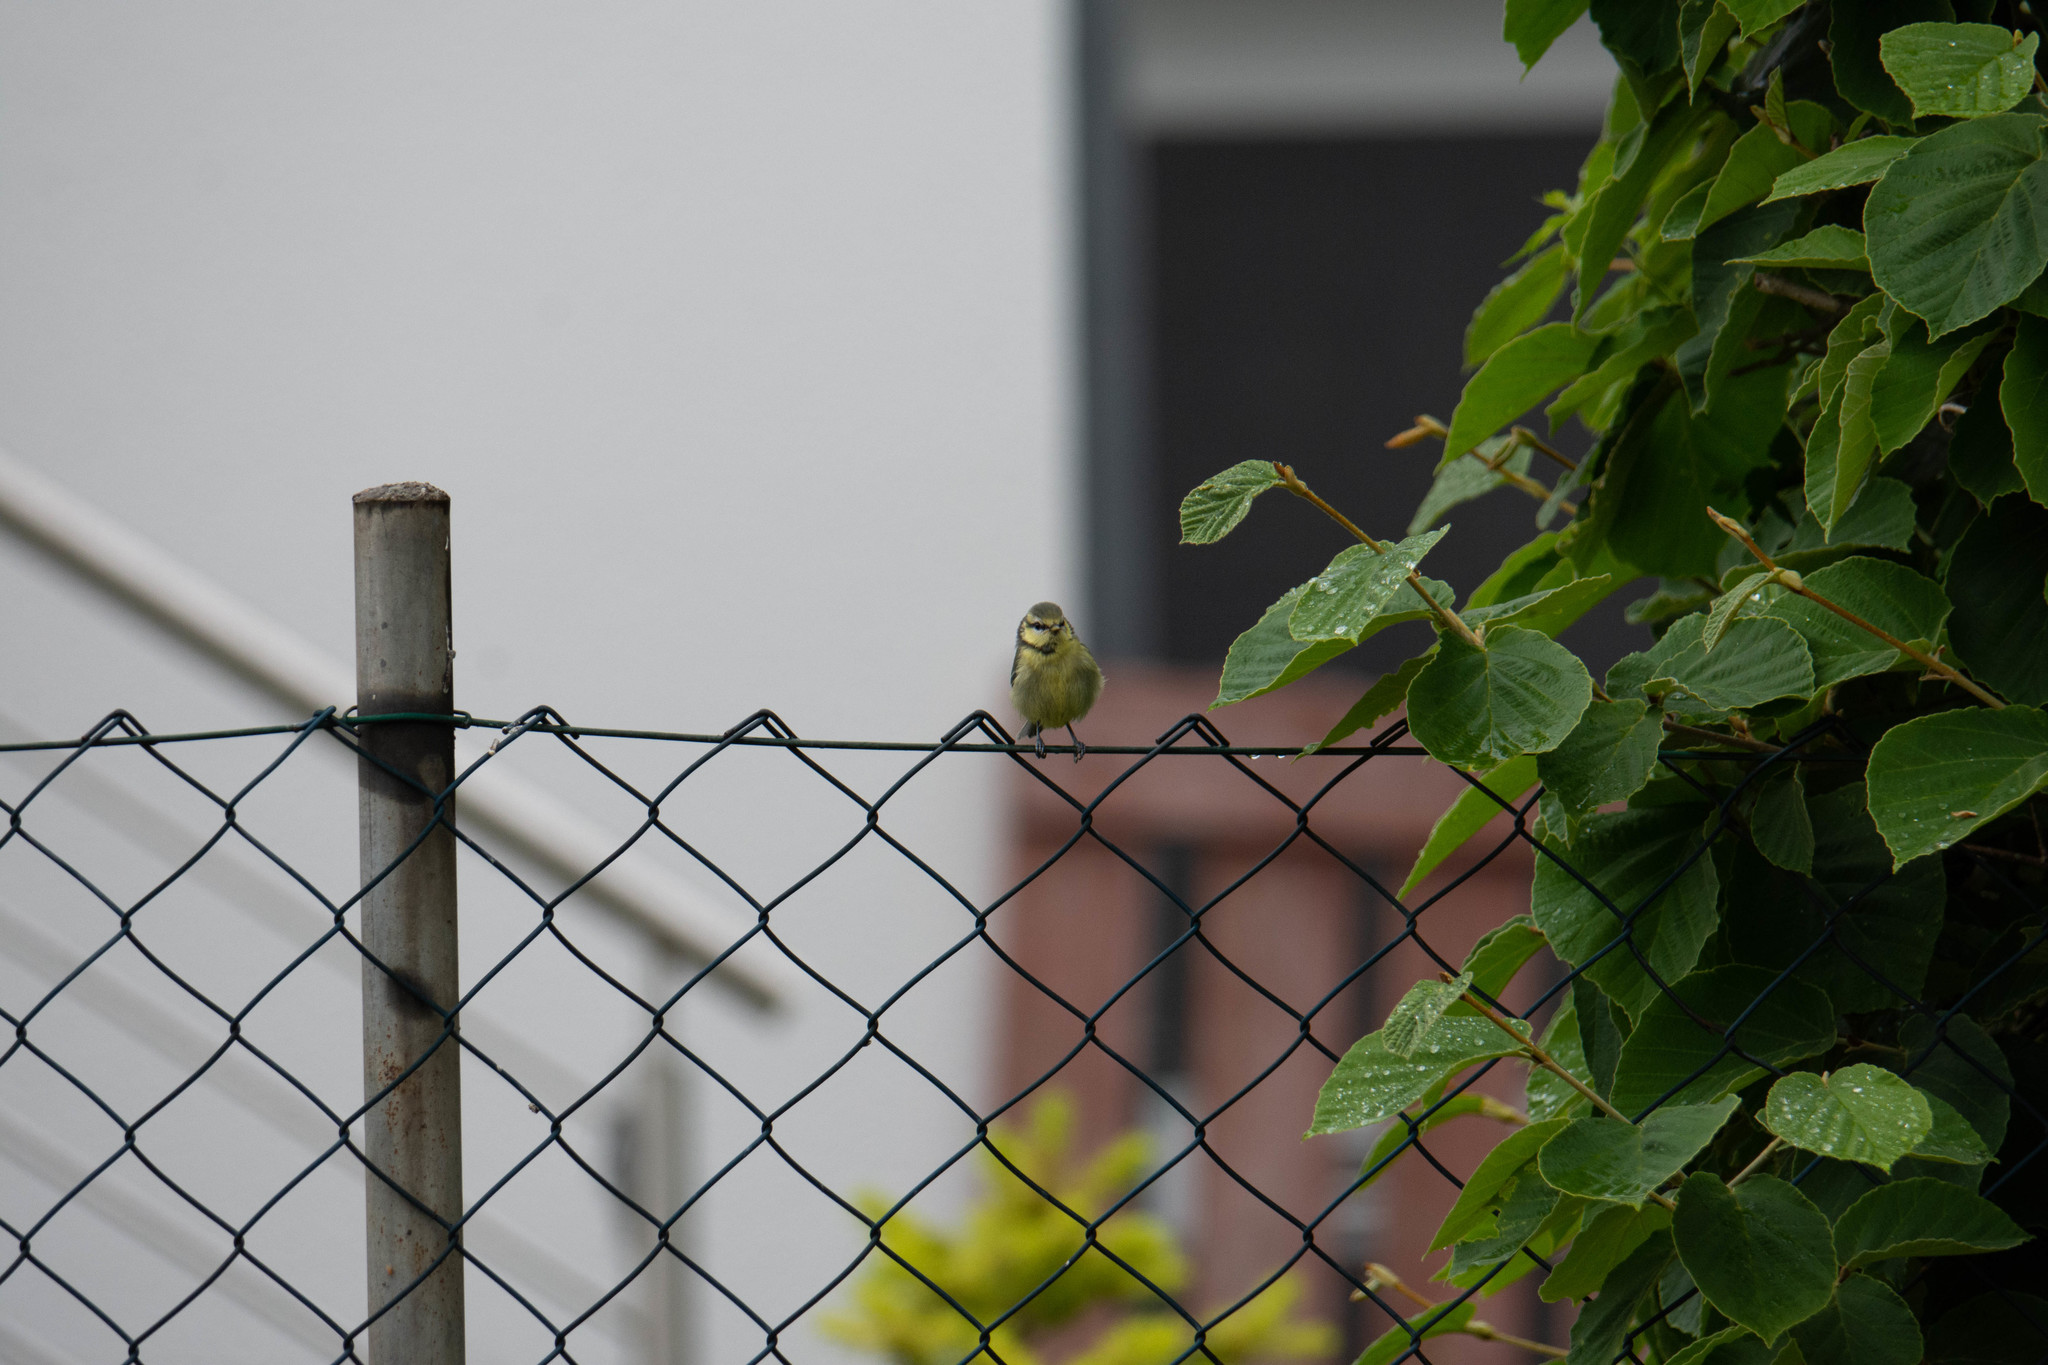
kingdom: Animalia
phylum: Chordata
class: Aves
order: Passeriformes
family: Paridae
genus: Cyanistes
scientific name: Cyanistes caeruleus
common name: Eurasian blue tit
